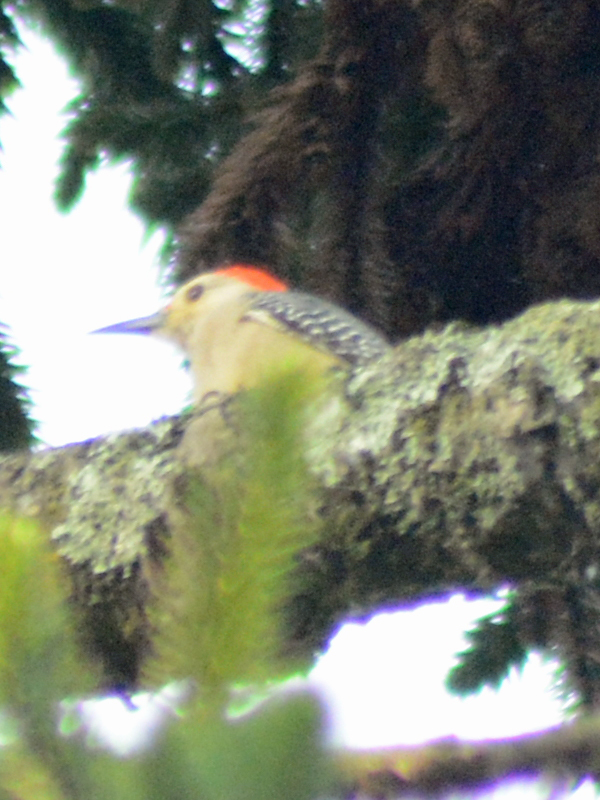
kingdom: Animalia
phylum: Chordata
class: Aves
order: Piciformes
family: Picidae
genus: Melanerpes
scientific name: Melanerpes aurifrons
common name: Golden-fronted woodpecker
